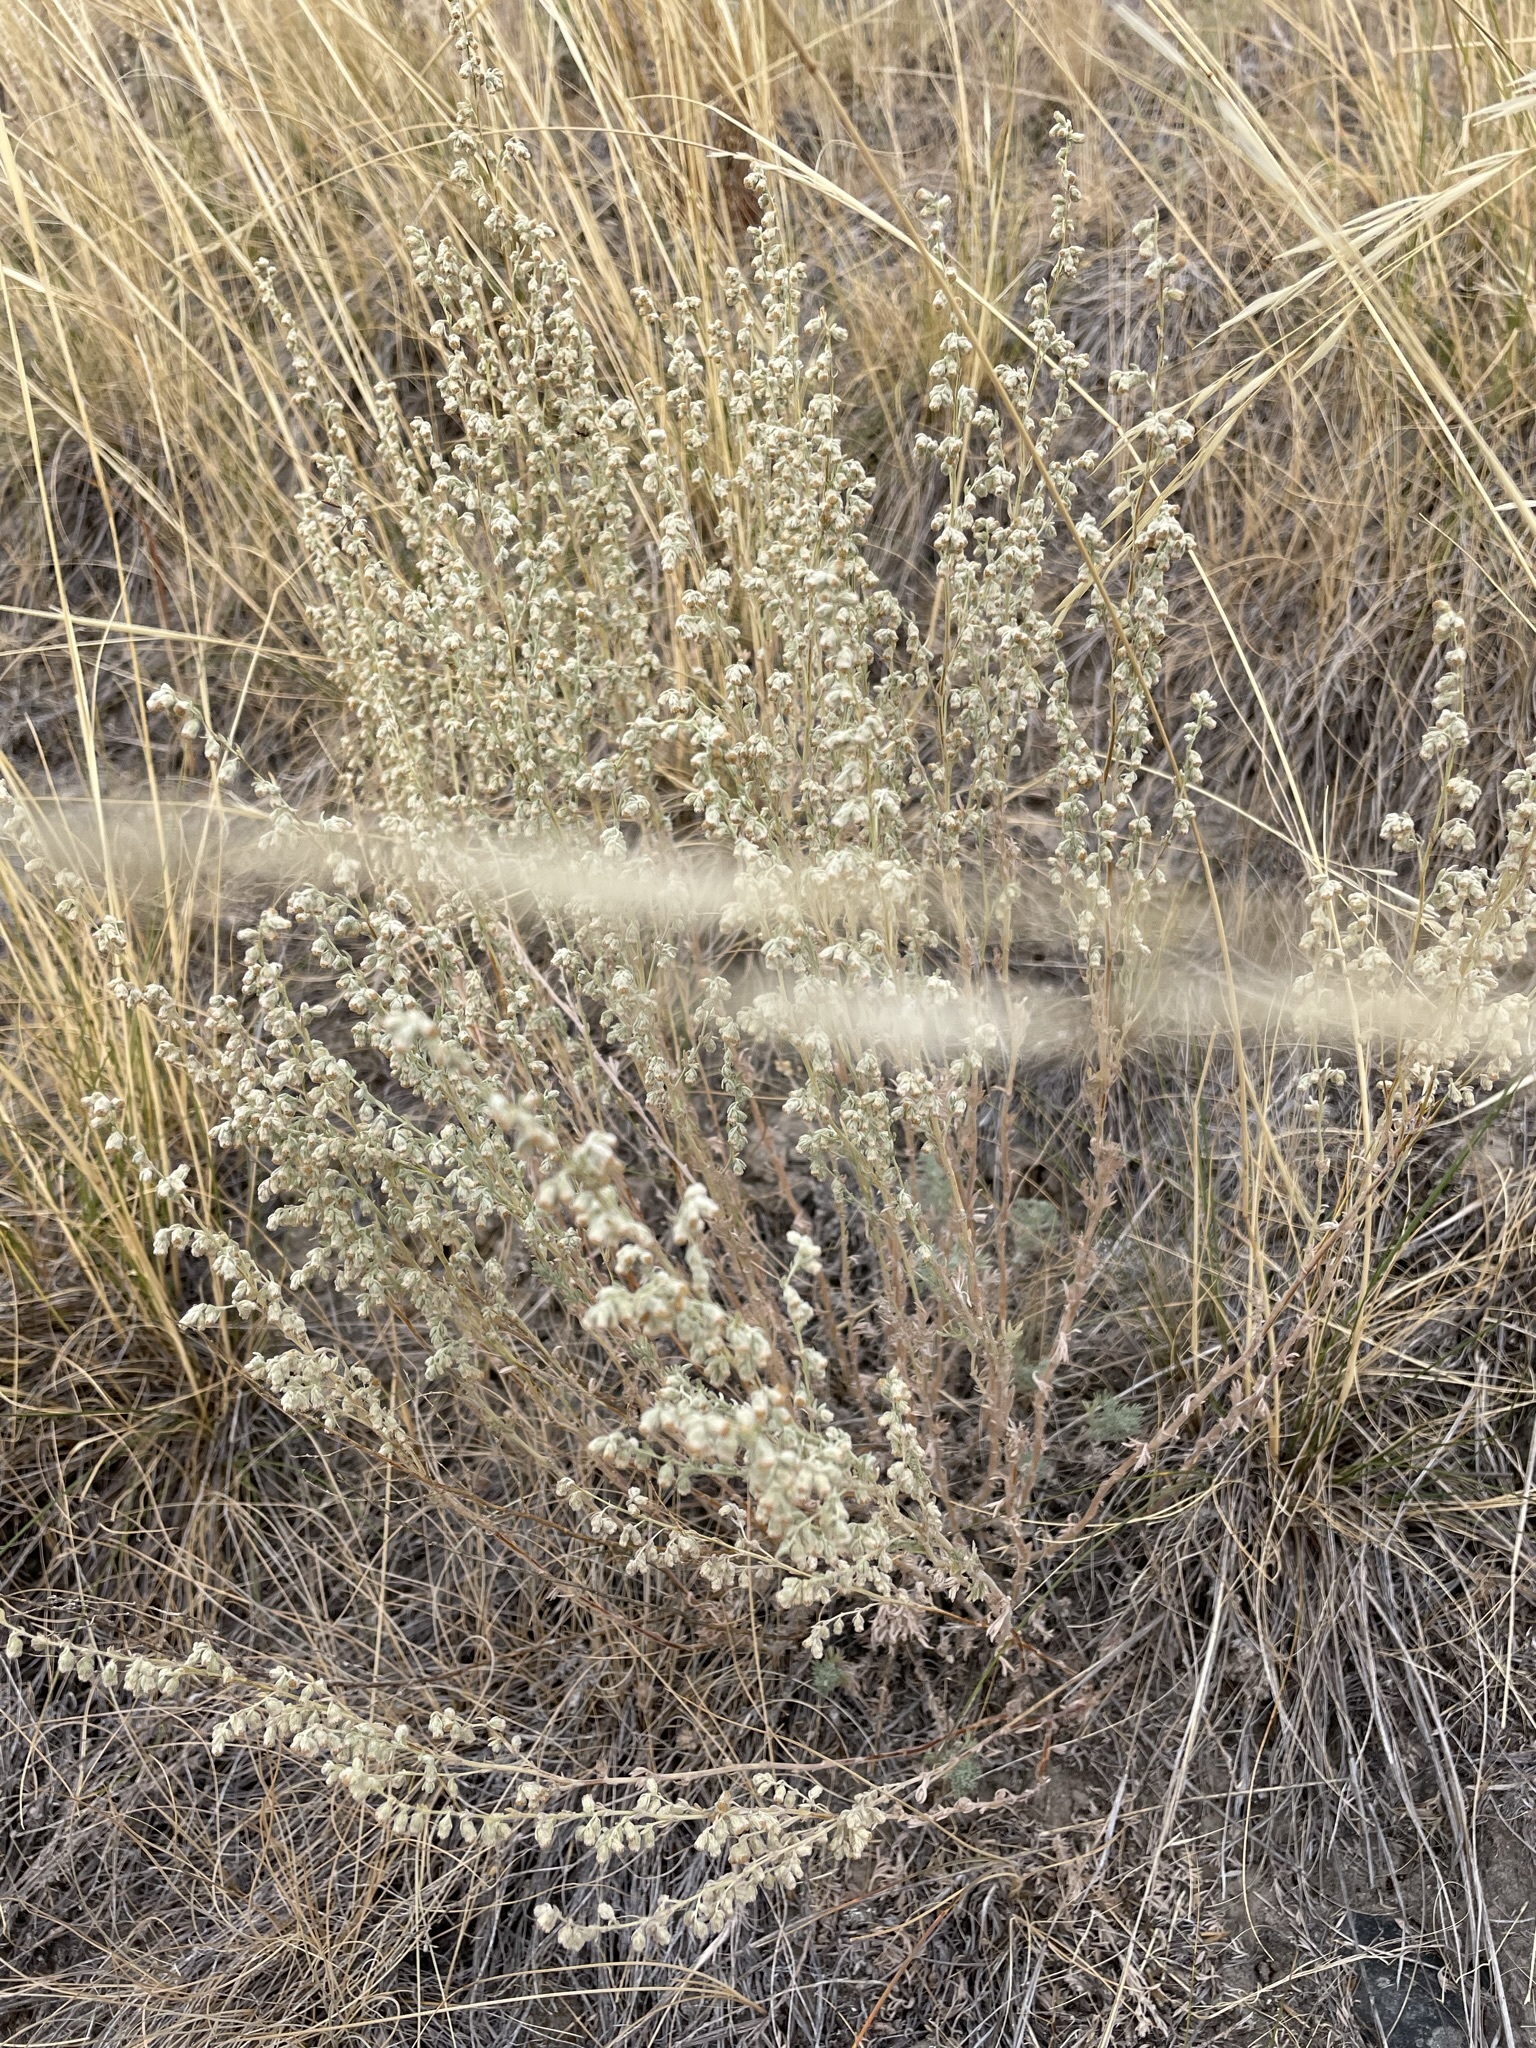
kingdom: Plantae
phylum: Tracheophyta
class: Magnoliopsida
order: Asterales
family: Asteraceae
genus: Artemisia
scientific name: Artemisia frigida
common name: Prairie sagewort
